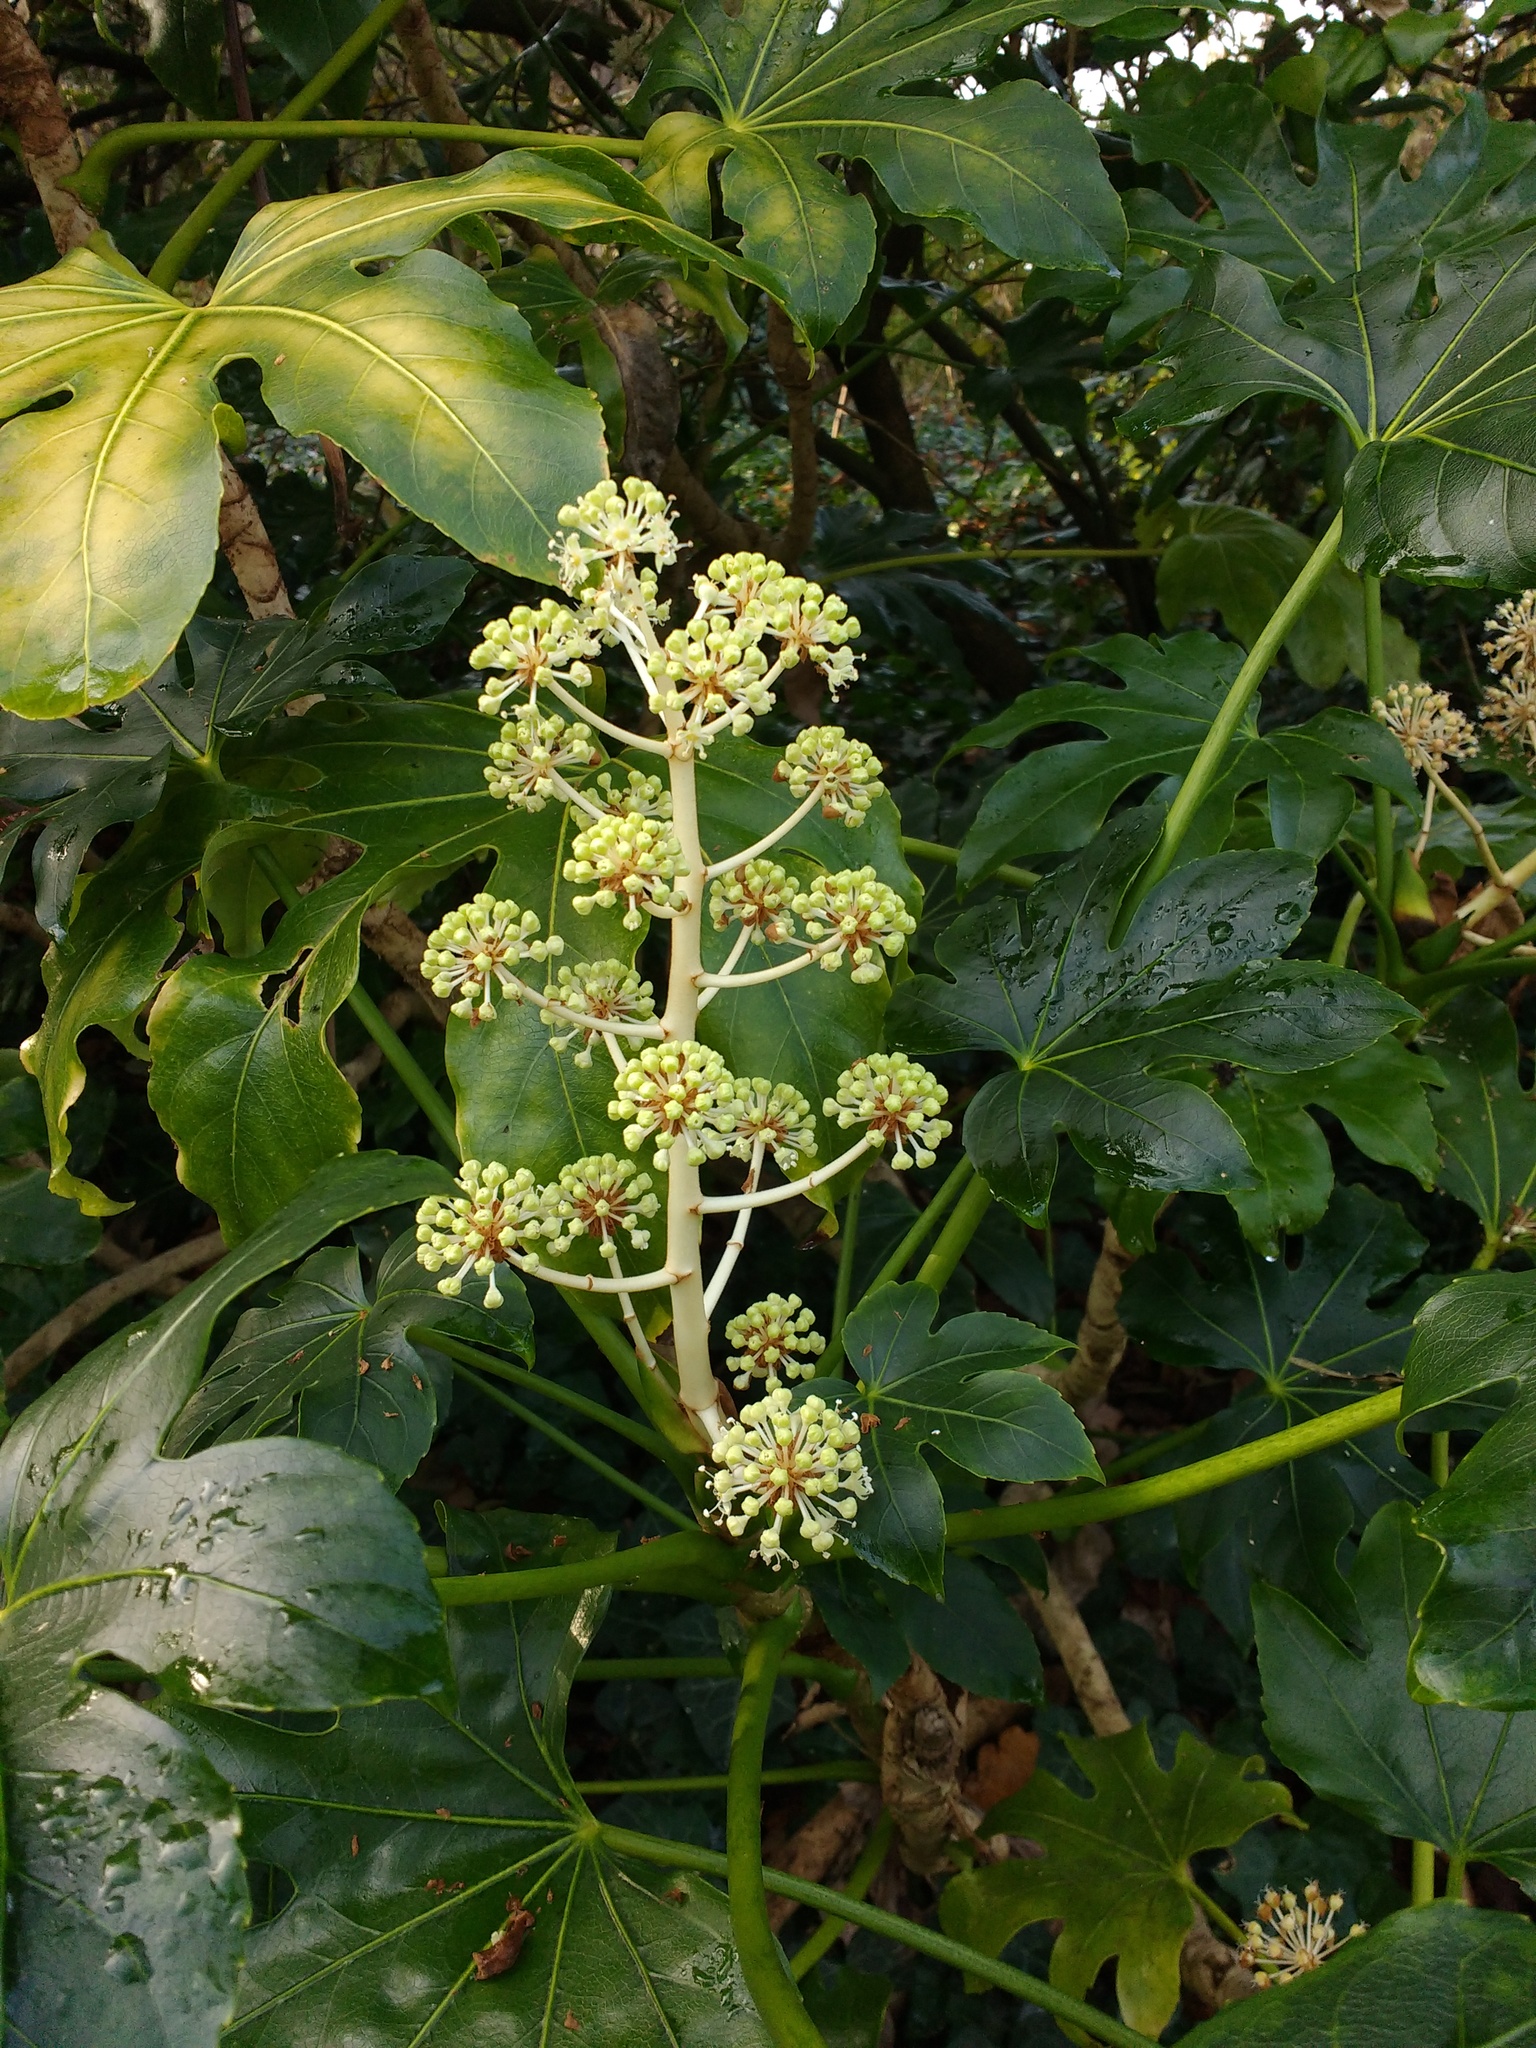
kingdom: Plantae
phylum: Tracheophyta
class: Magnoliopsida
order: Apiales
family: Araliaceae
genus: Fatsia
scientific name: Fatsia japonica
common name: Fatsia
